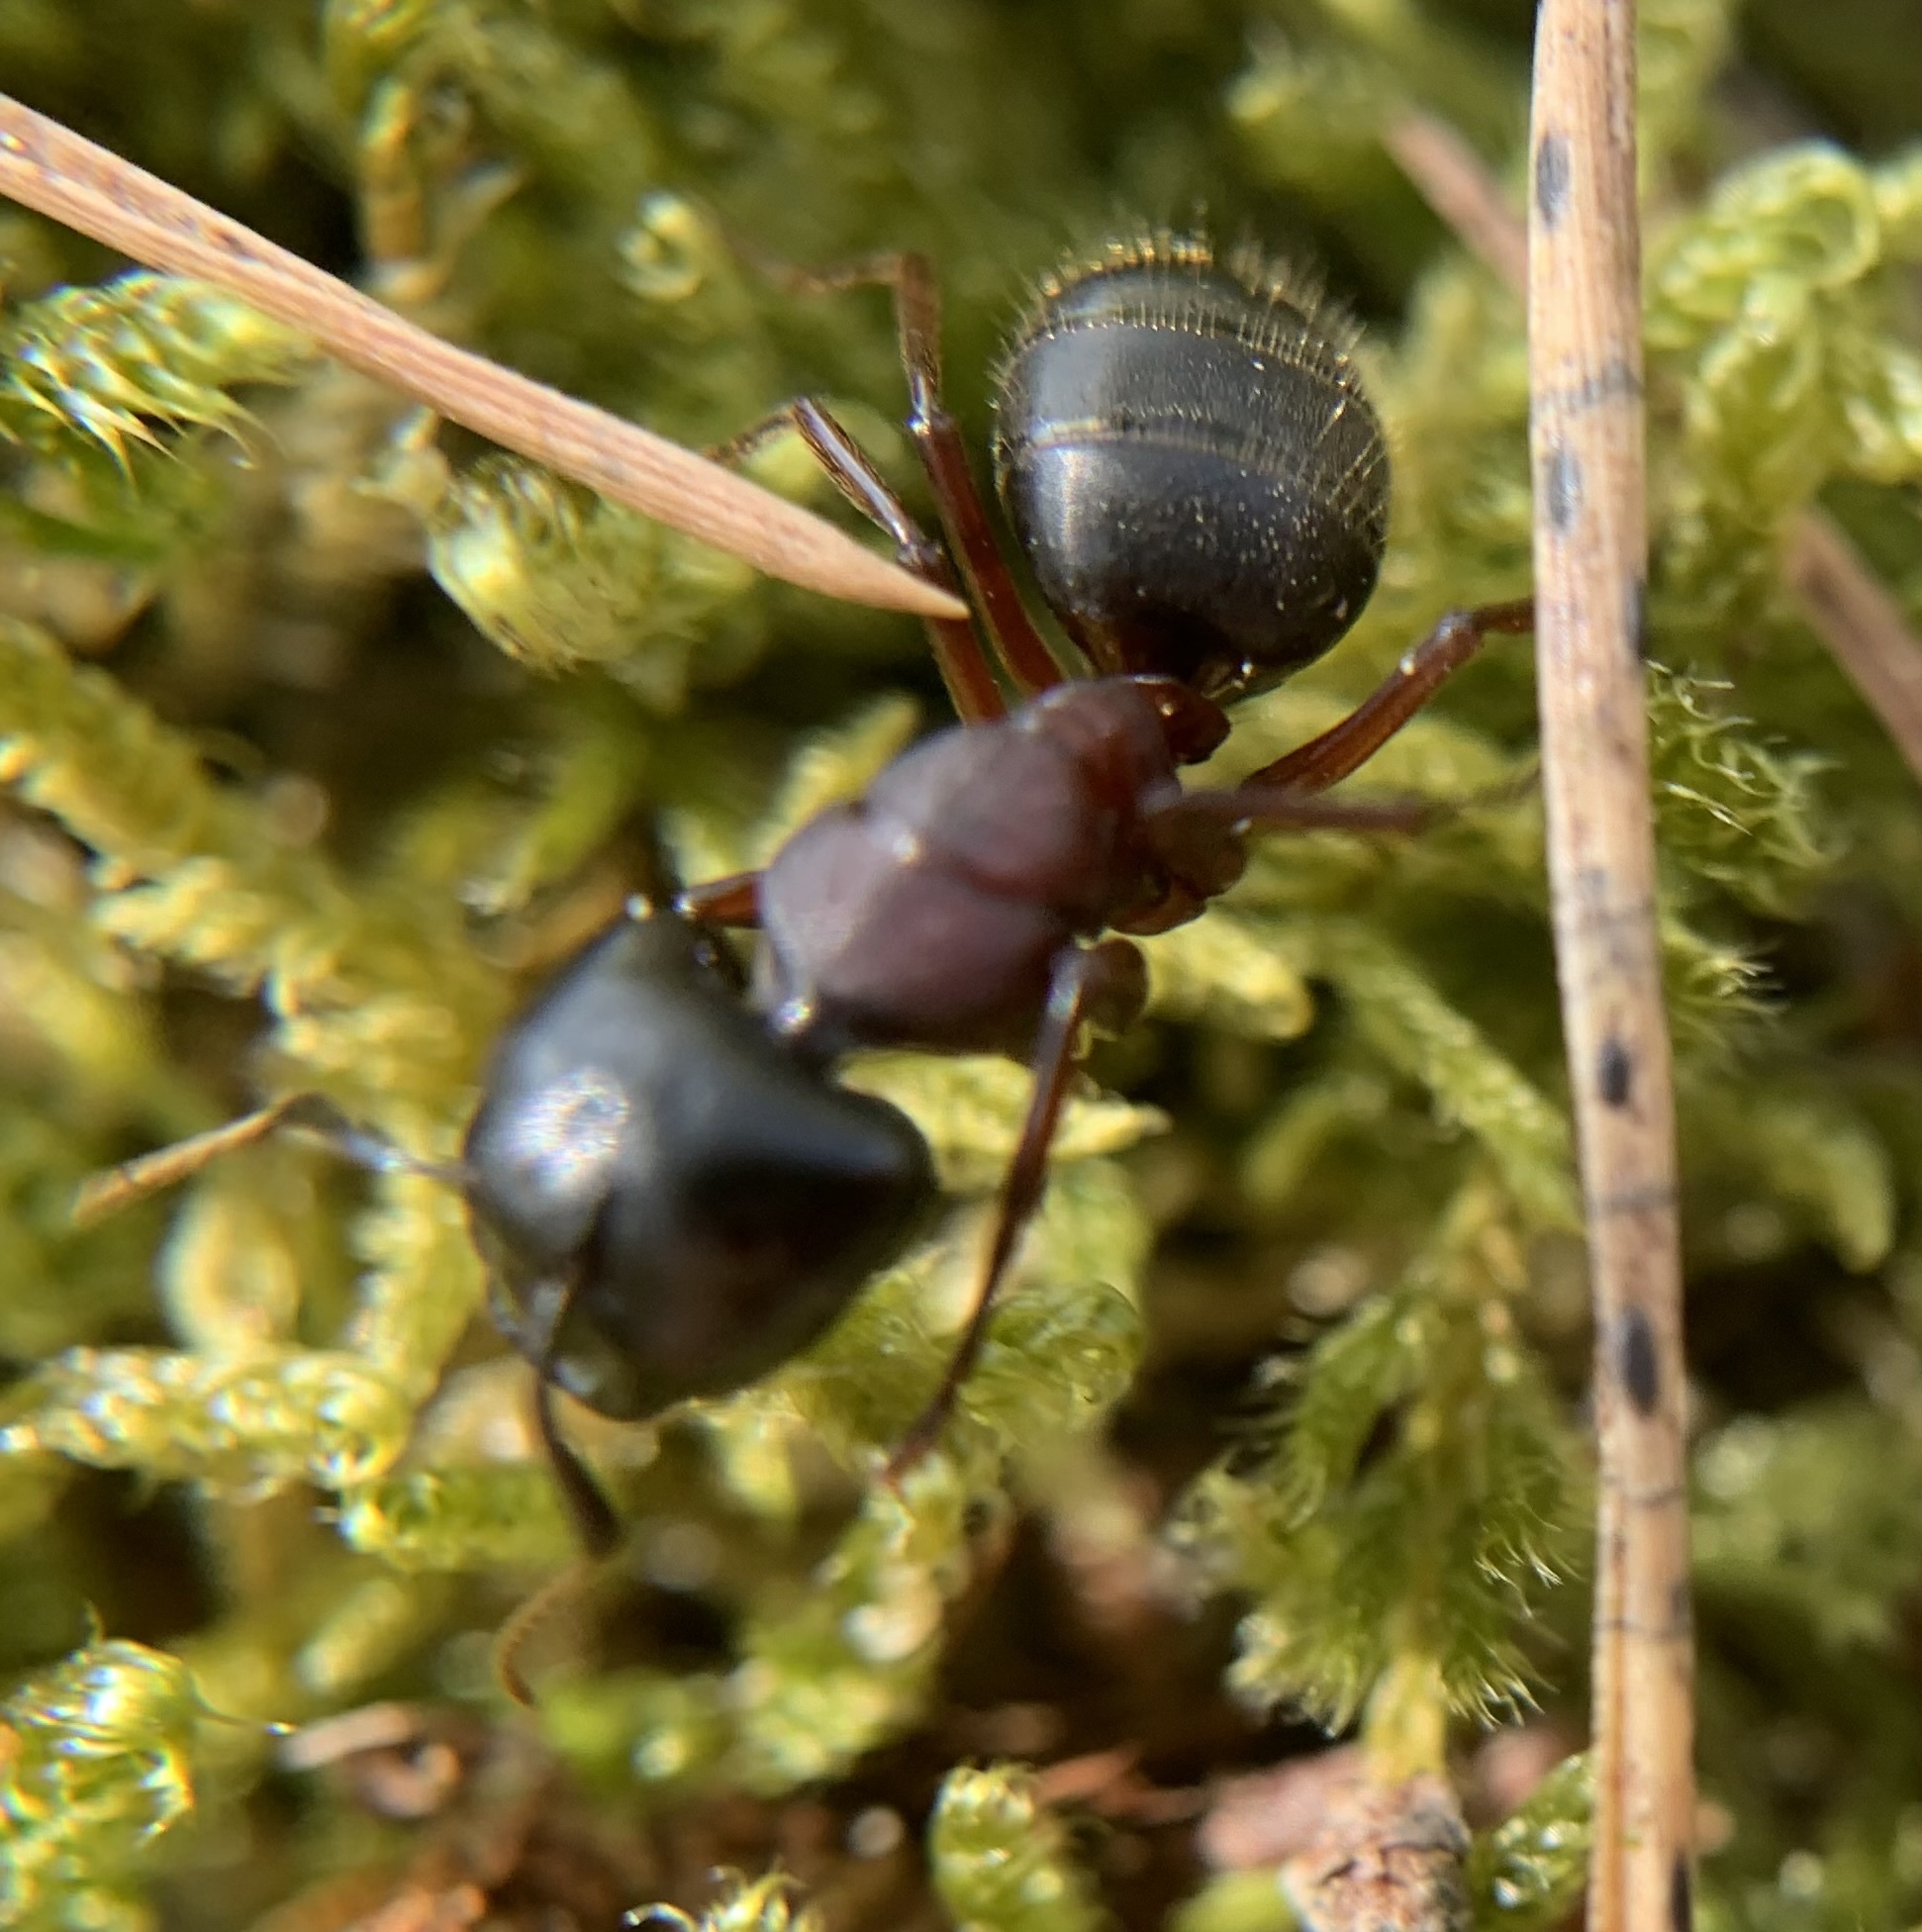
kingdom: Animalia
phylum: Arthropoda
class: Insecta
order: Hymenoptera
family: Formicidae
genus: Camponotus
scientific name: Camponotus herculeanus
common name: Hercules ant
